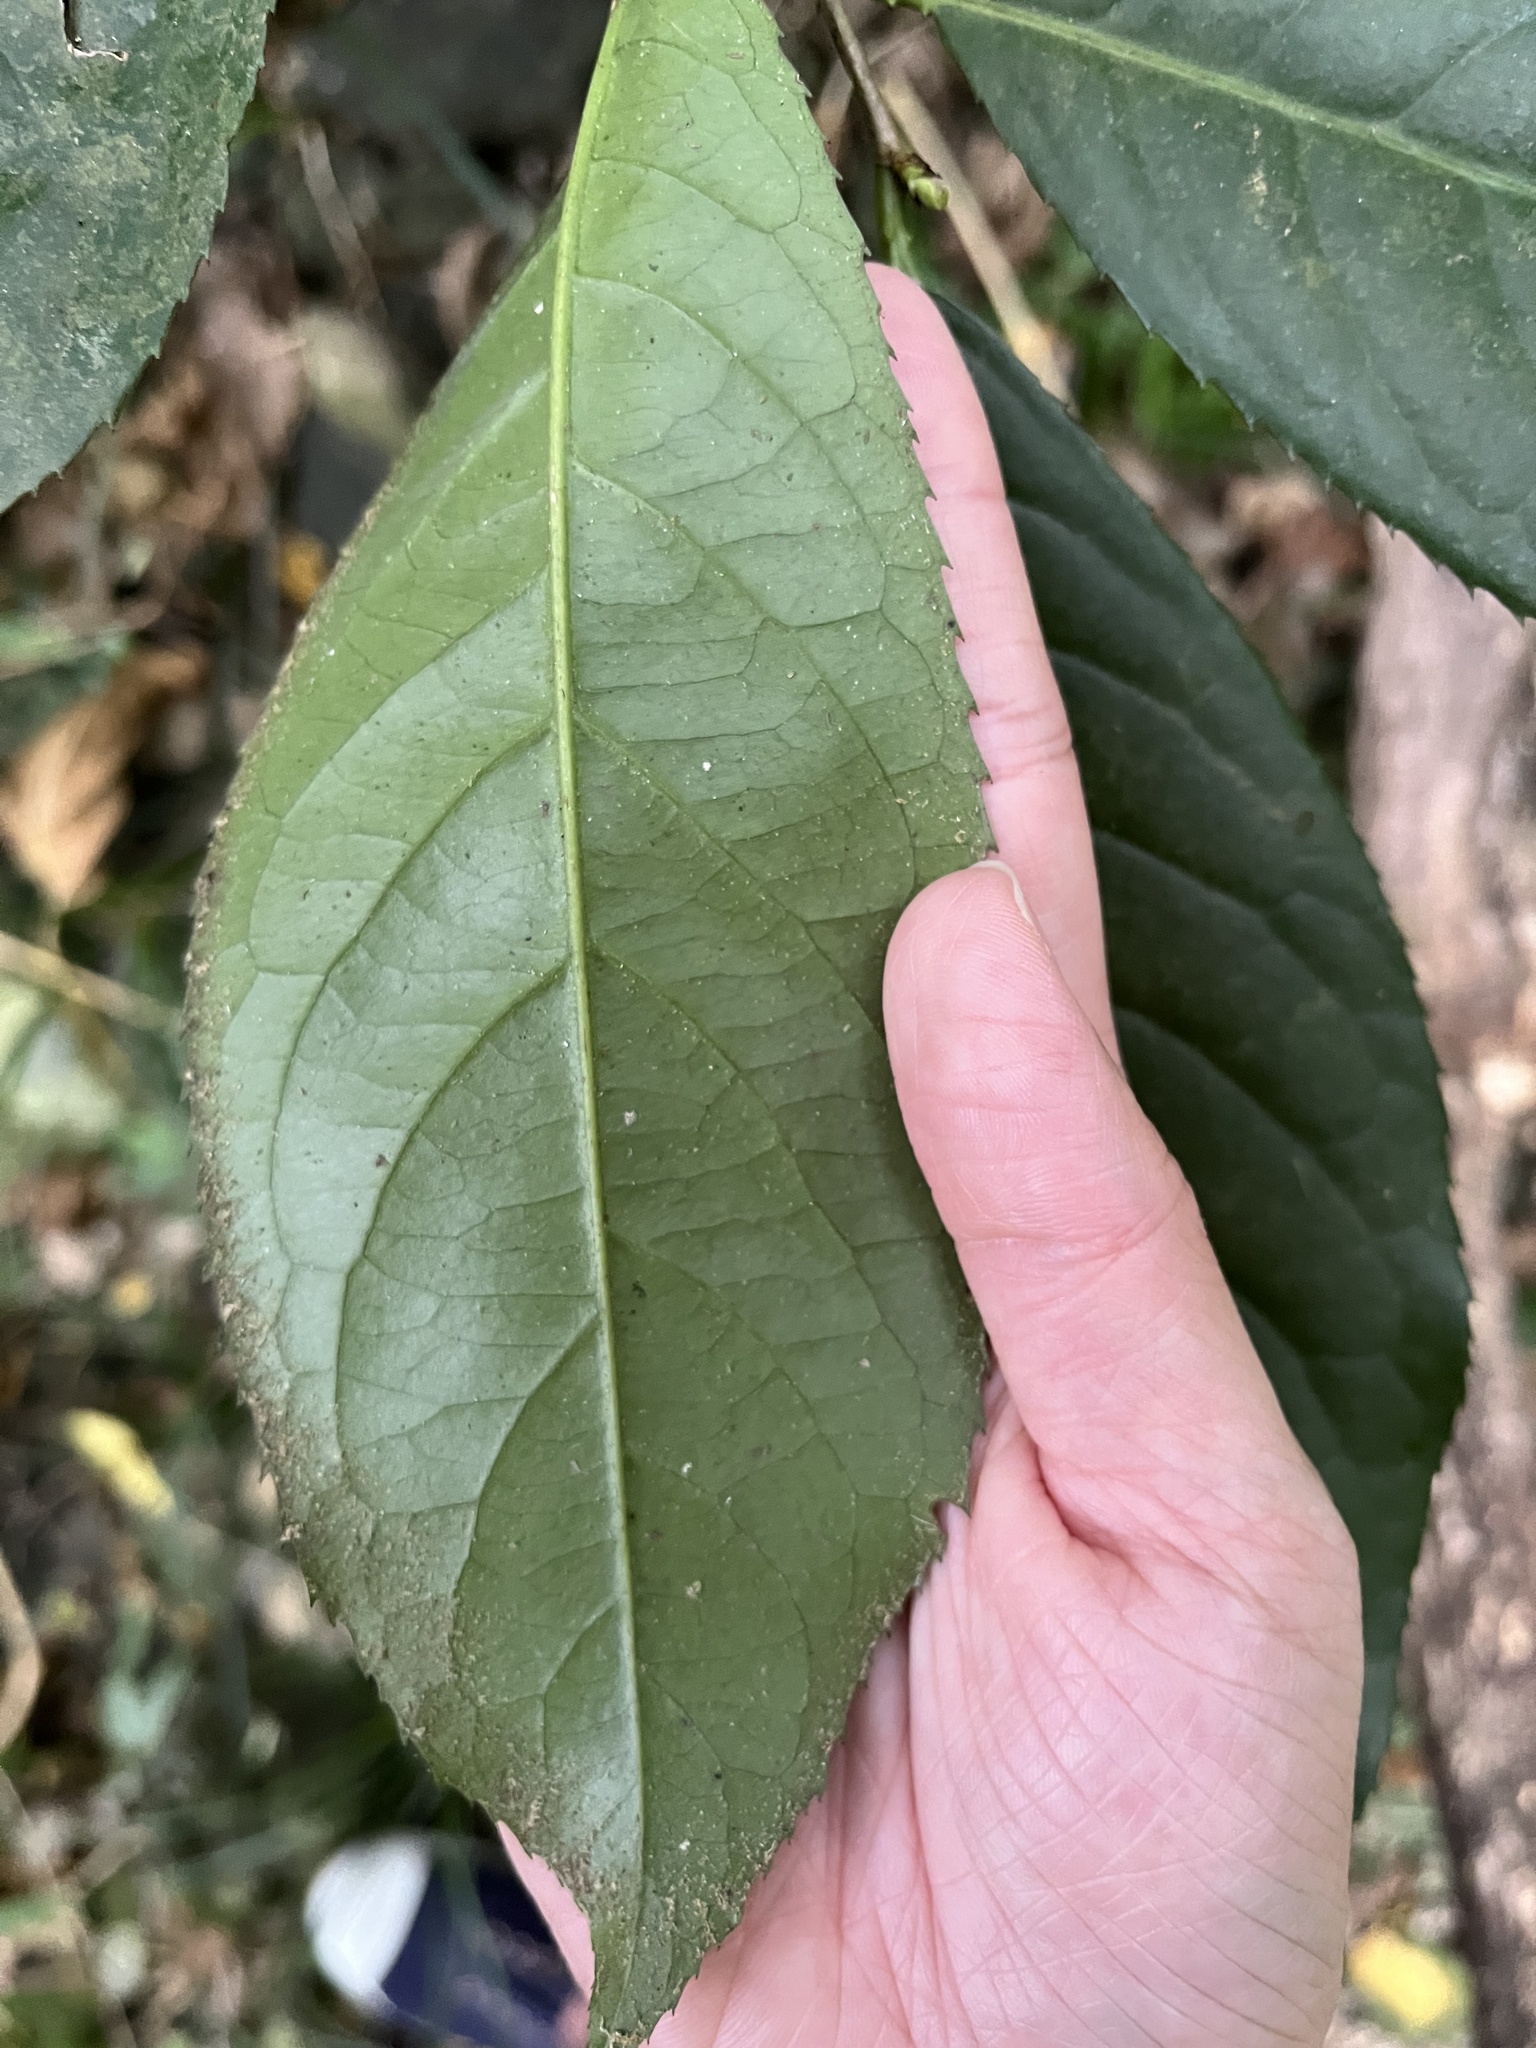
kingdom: Plantae
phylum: Tracheophyta
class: Magnoliopsida
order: Rosales
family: Rosaceae
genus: Prunus
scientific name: Prunus zippeliana
